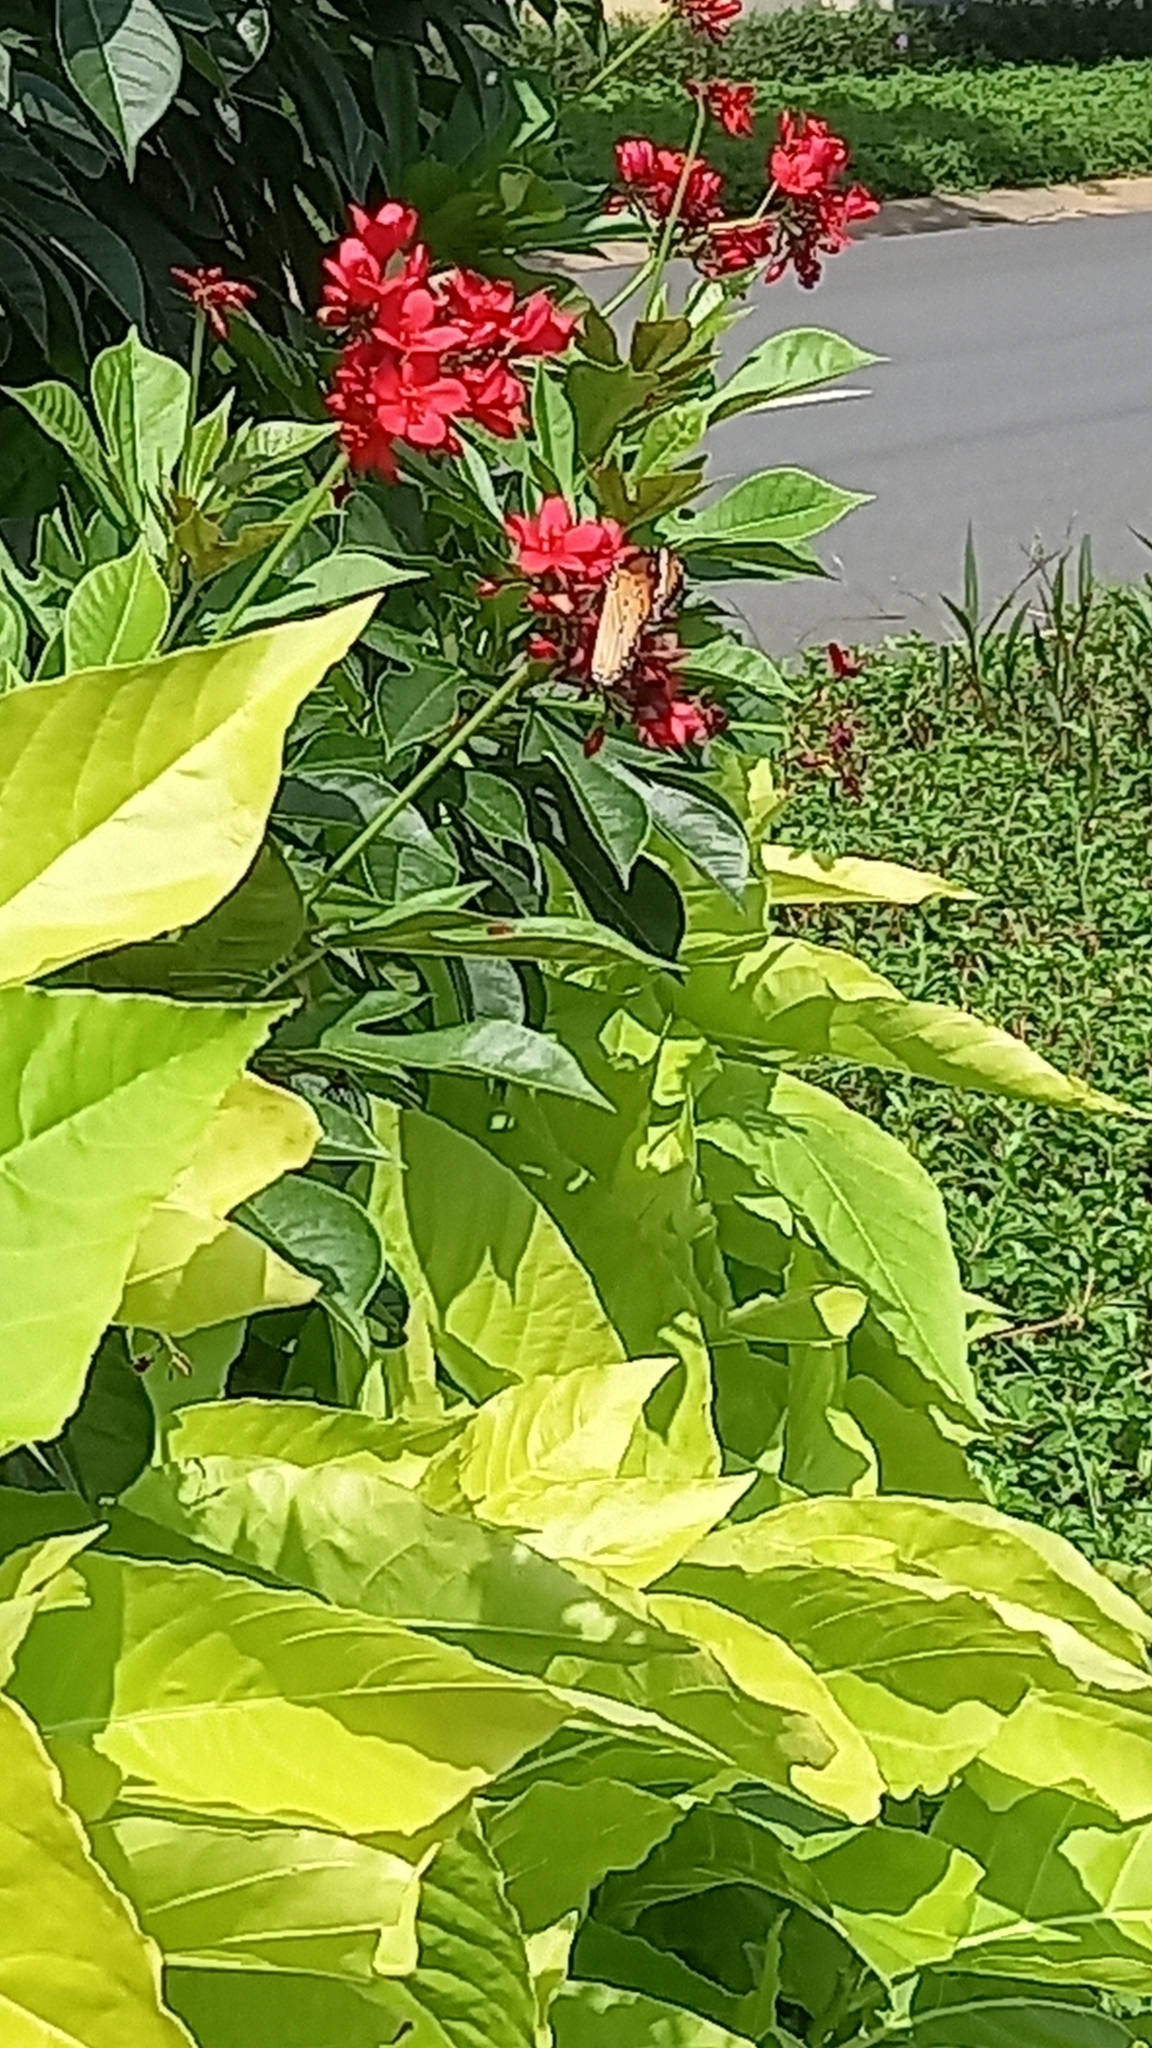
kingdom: Animalia
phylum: Arthropoda
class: Insecta
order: Lepidoptera
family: Nymphalidae
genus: Danaus
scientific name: Danaus chrysippus
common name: Plain tiger
